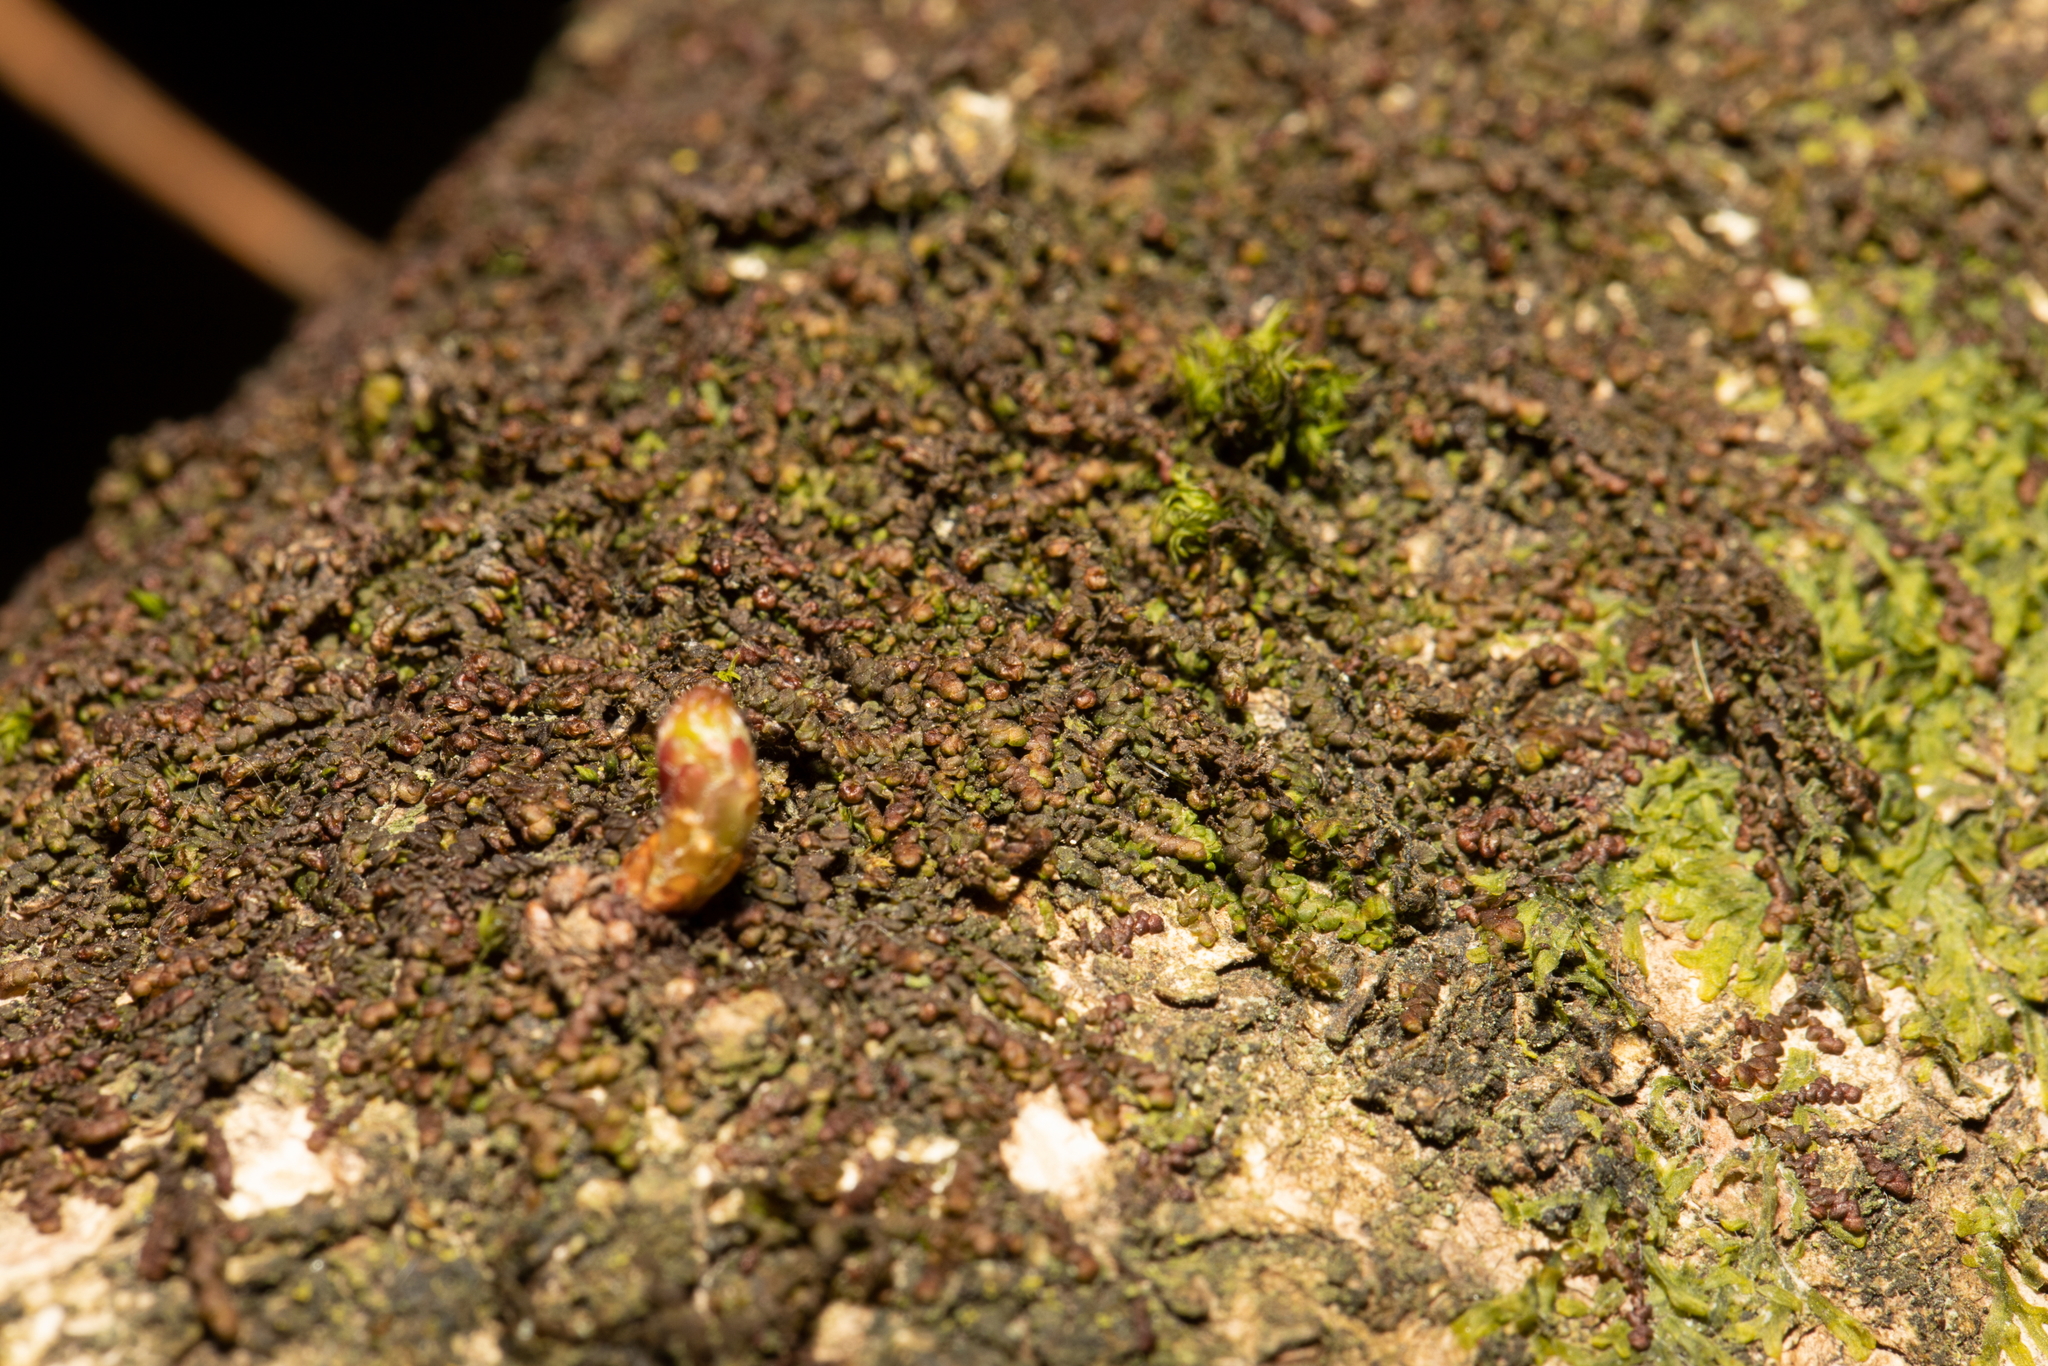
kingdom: Plantae
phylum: Marchantiophyta
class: Jungermanniopsida
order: Porellales
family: Frullaniaceae
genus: Frullania
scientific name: Frullania dilatata
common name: Dilated scalewort
